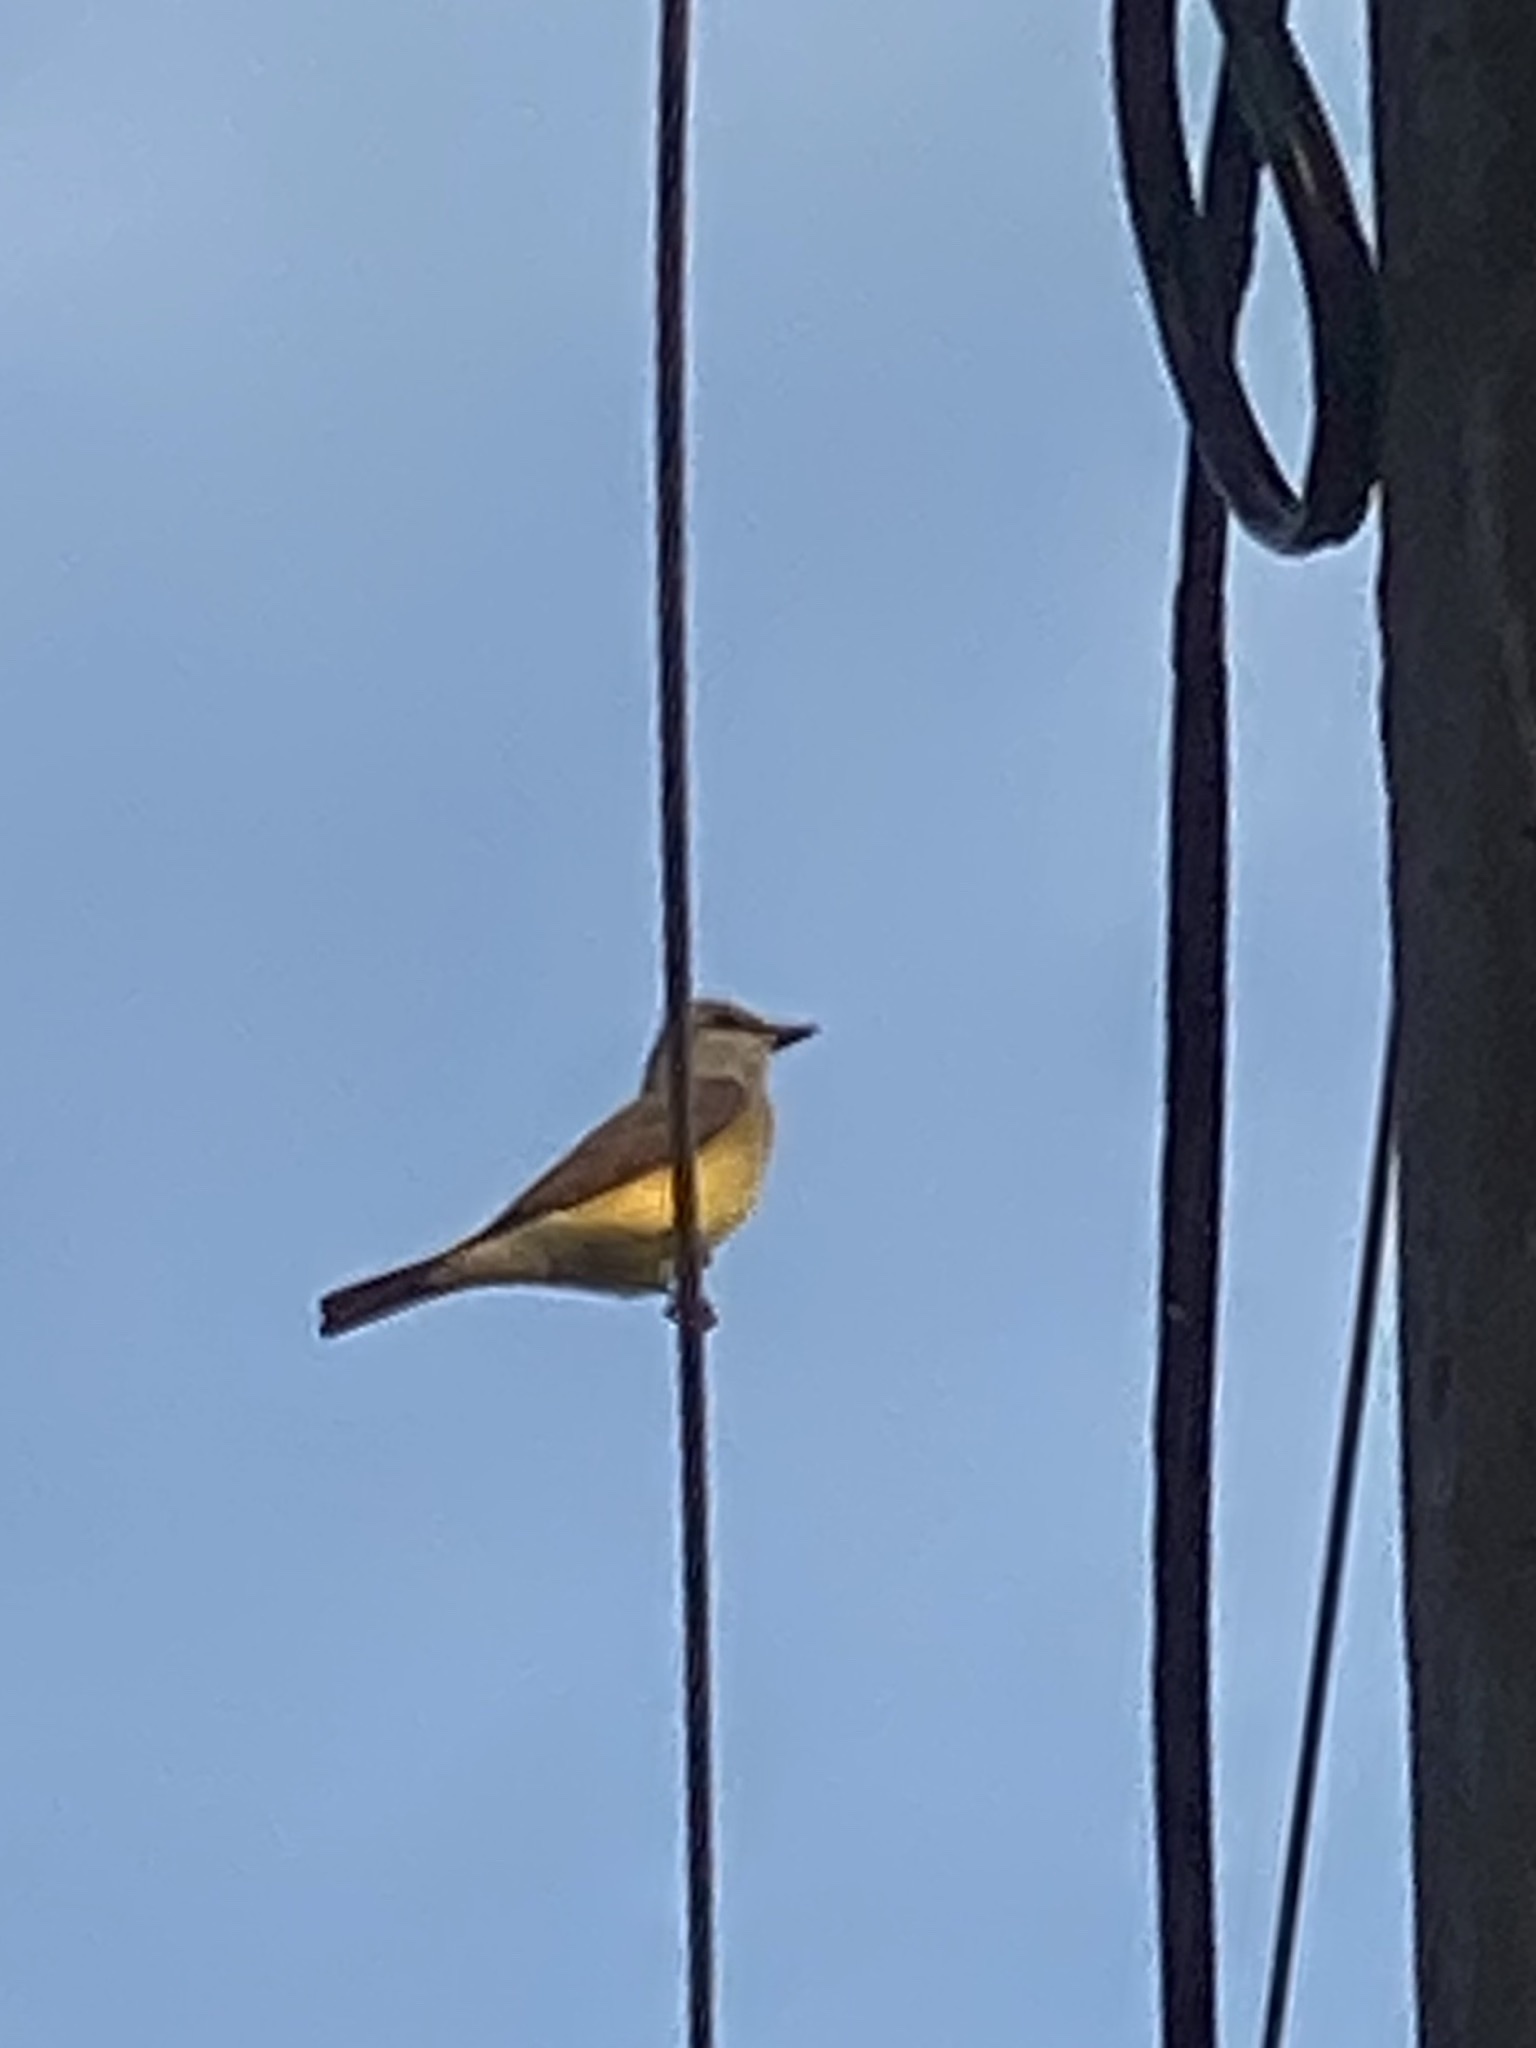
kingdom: Animalia
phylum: Chordata
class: Aves
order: Passeriformes
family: Tyrannidae
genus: Tyrannus
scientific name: Tyrannus verticalis
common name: Western kingbird
